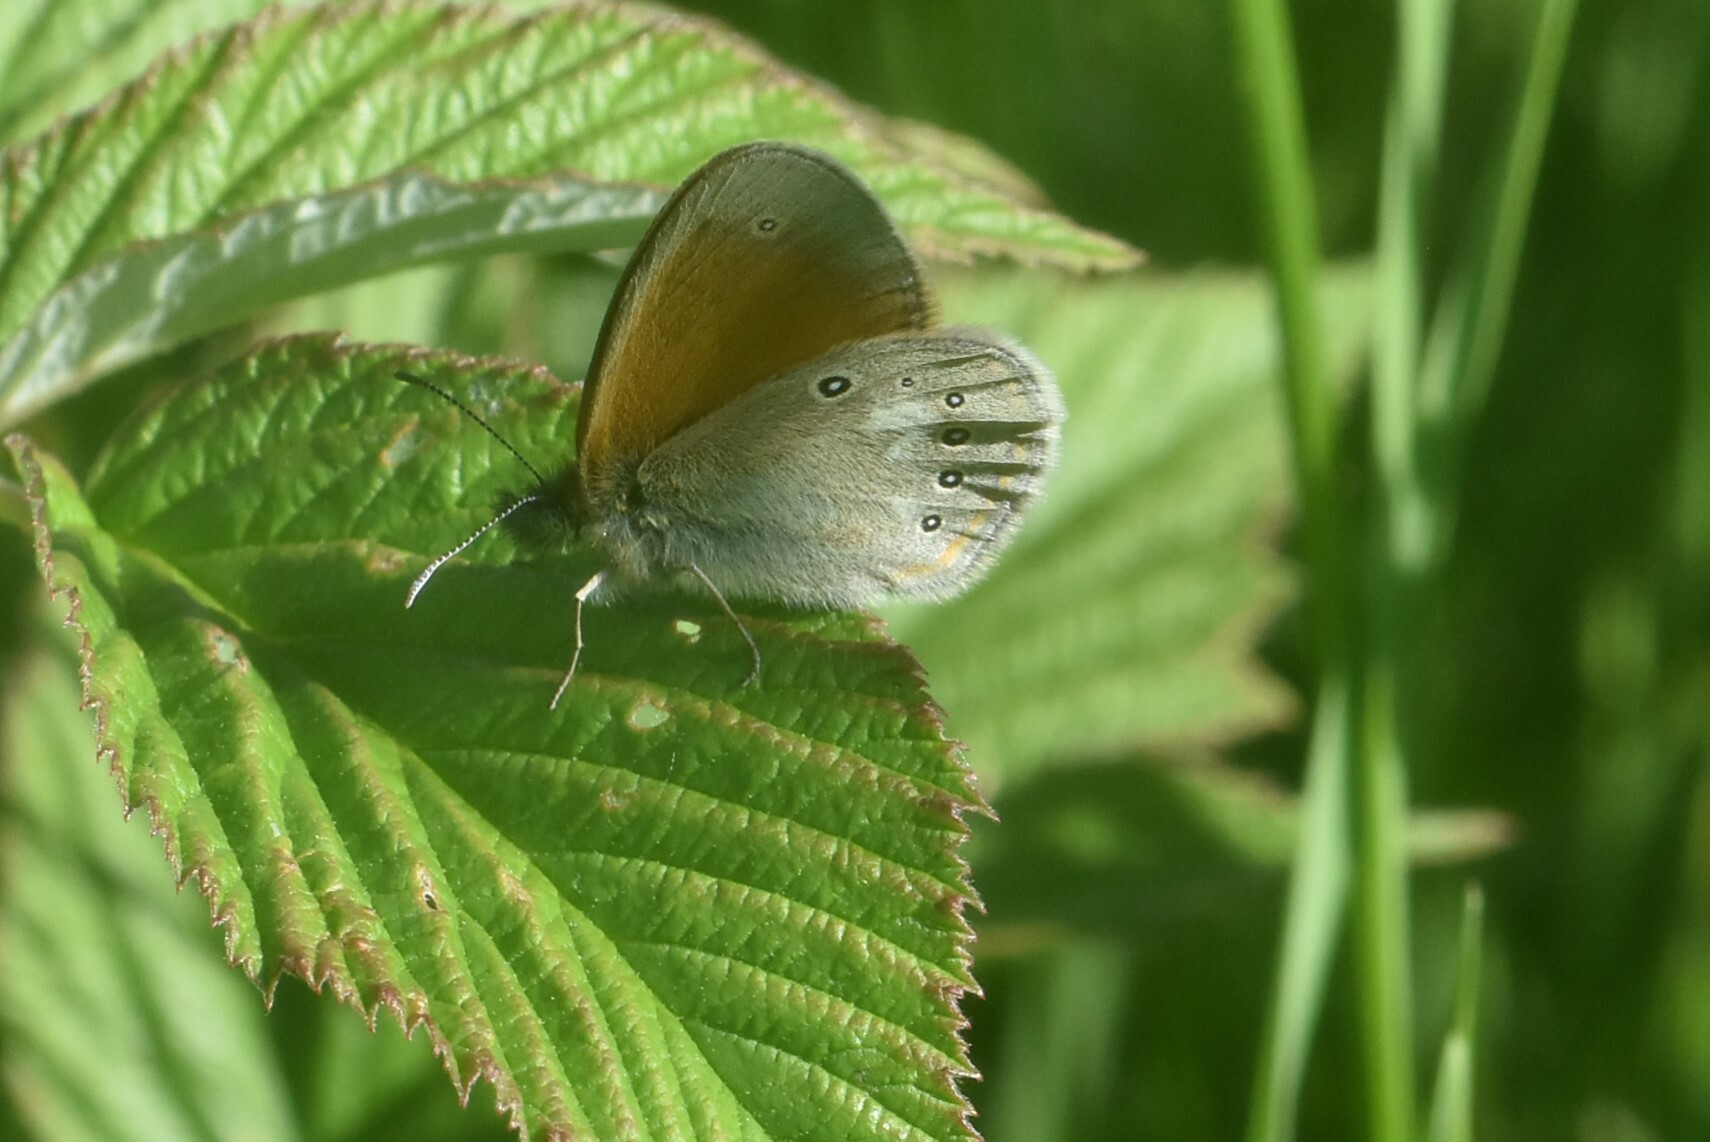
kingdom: Animalia
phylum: Arthropoda
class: Insecta
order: Lepidoptera
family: Nymphalidae
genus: Coenonympha
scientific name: Coenonympha iphis
